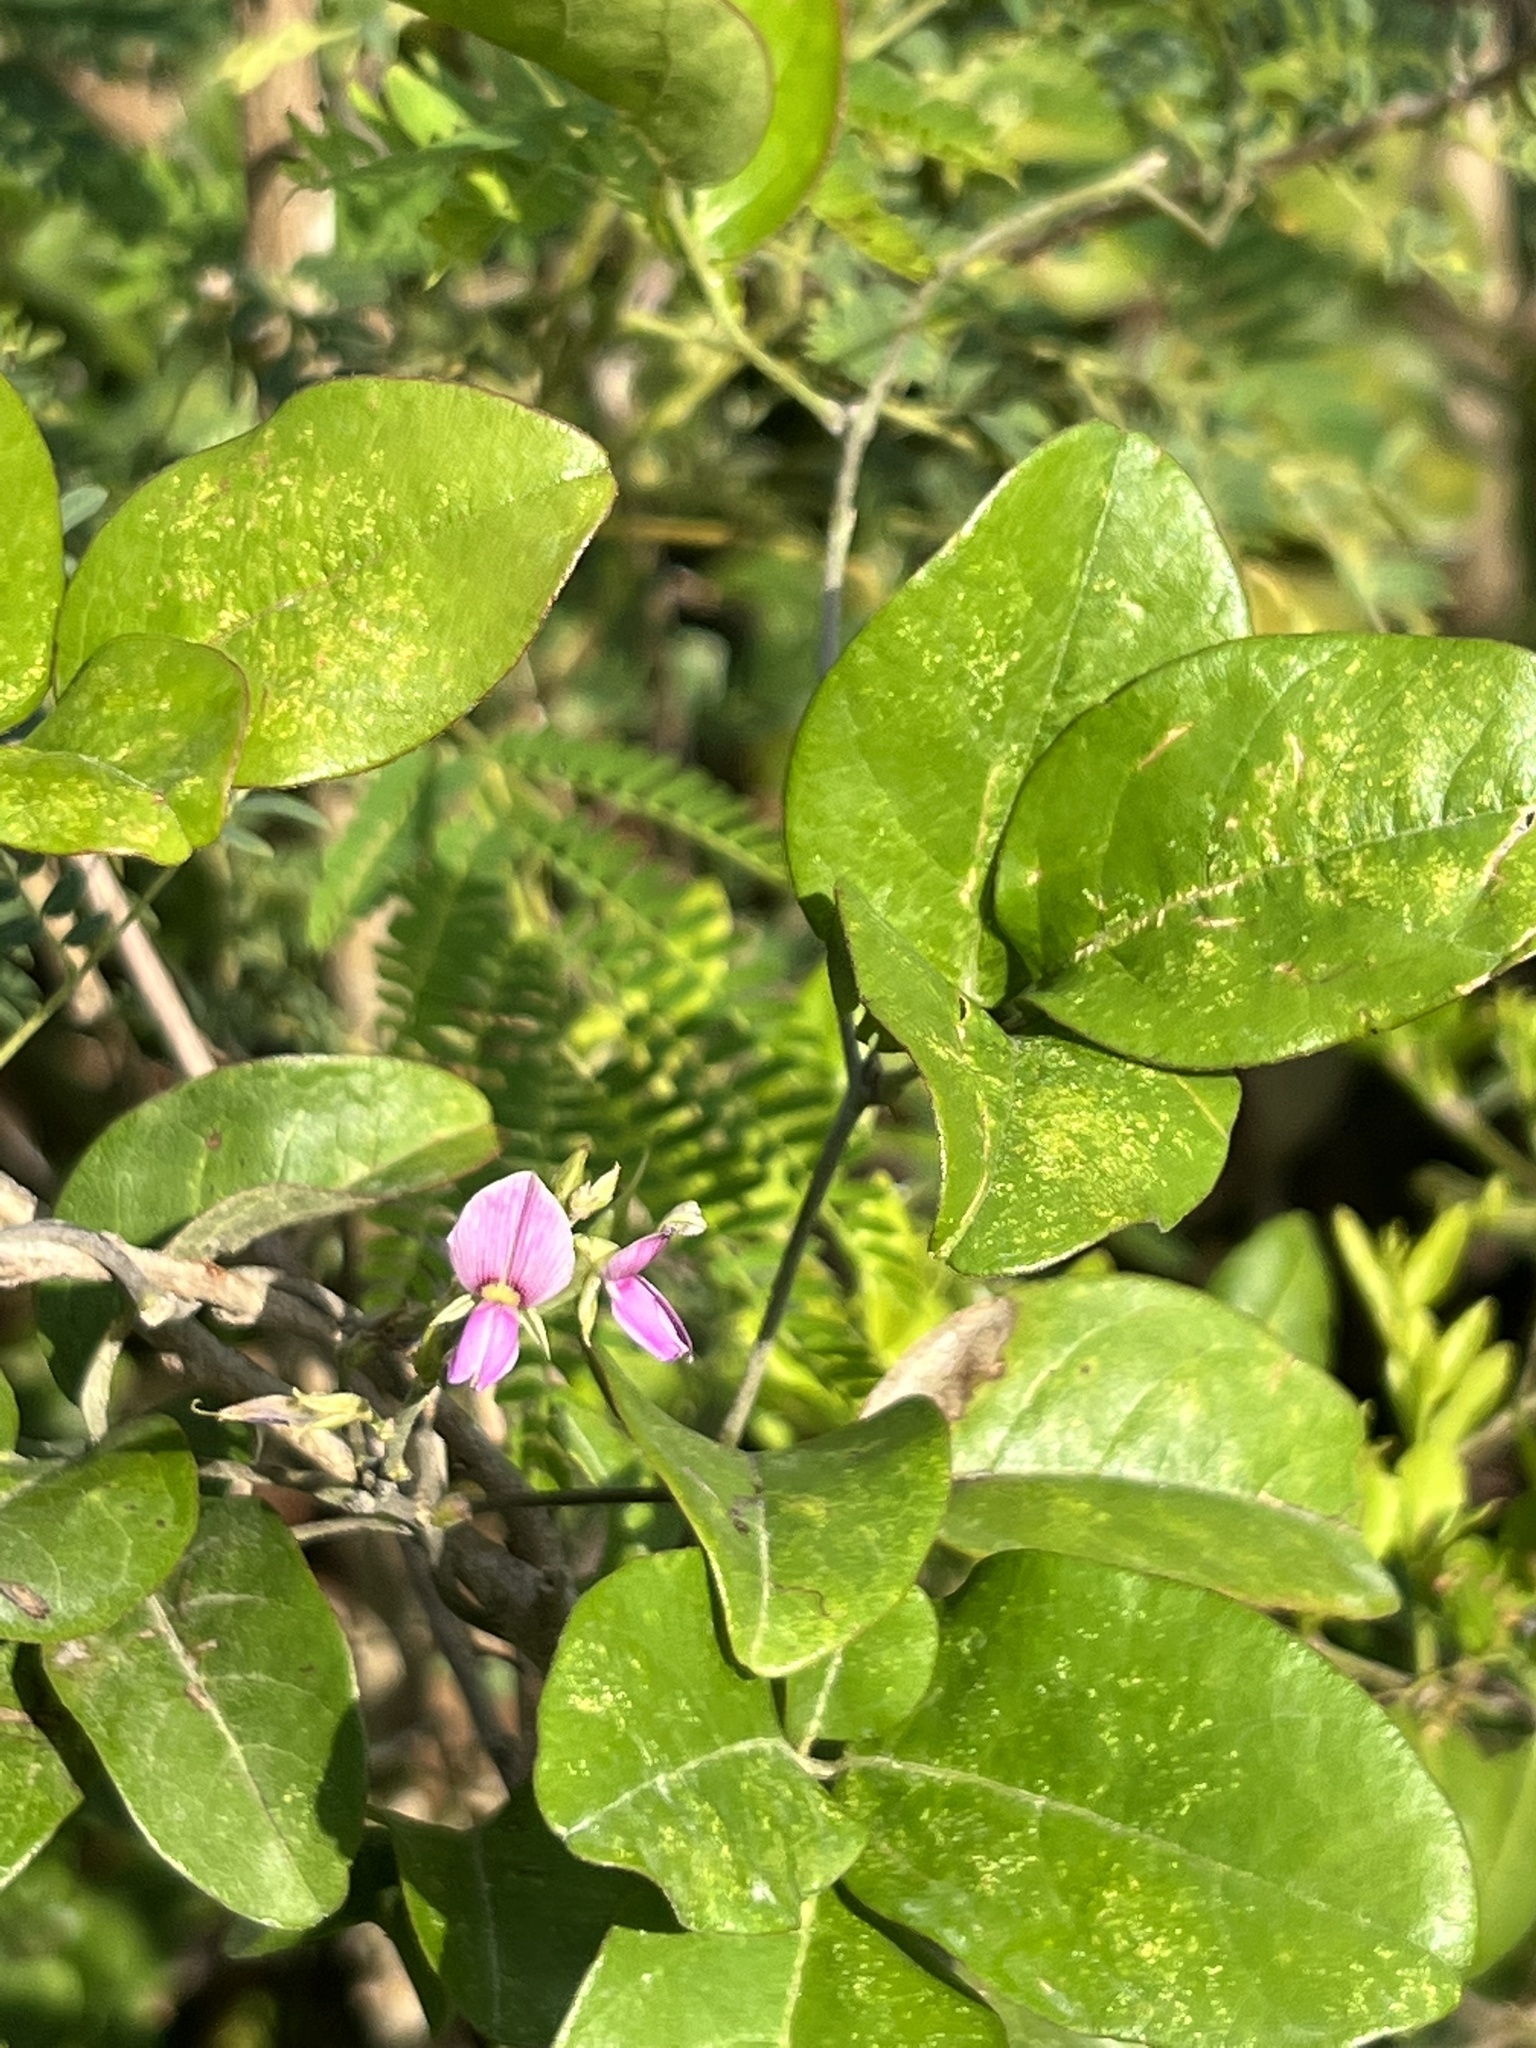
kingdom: Plantae
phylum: Tracheophyta
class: Magnoliopsida
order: Fabales
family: Fabaceae
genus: Galactia
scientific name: Galactia striata
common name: Florida hammock milkpea
